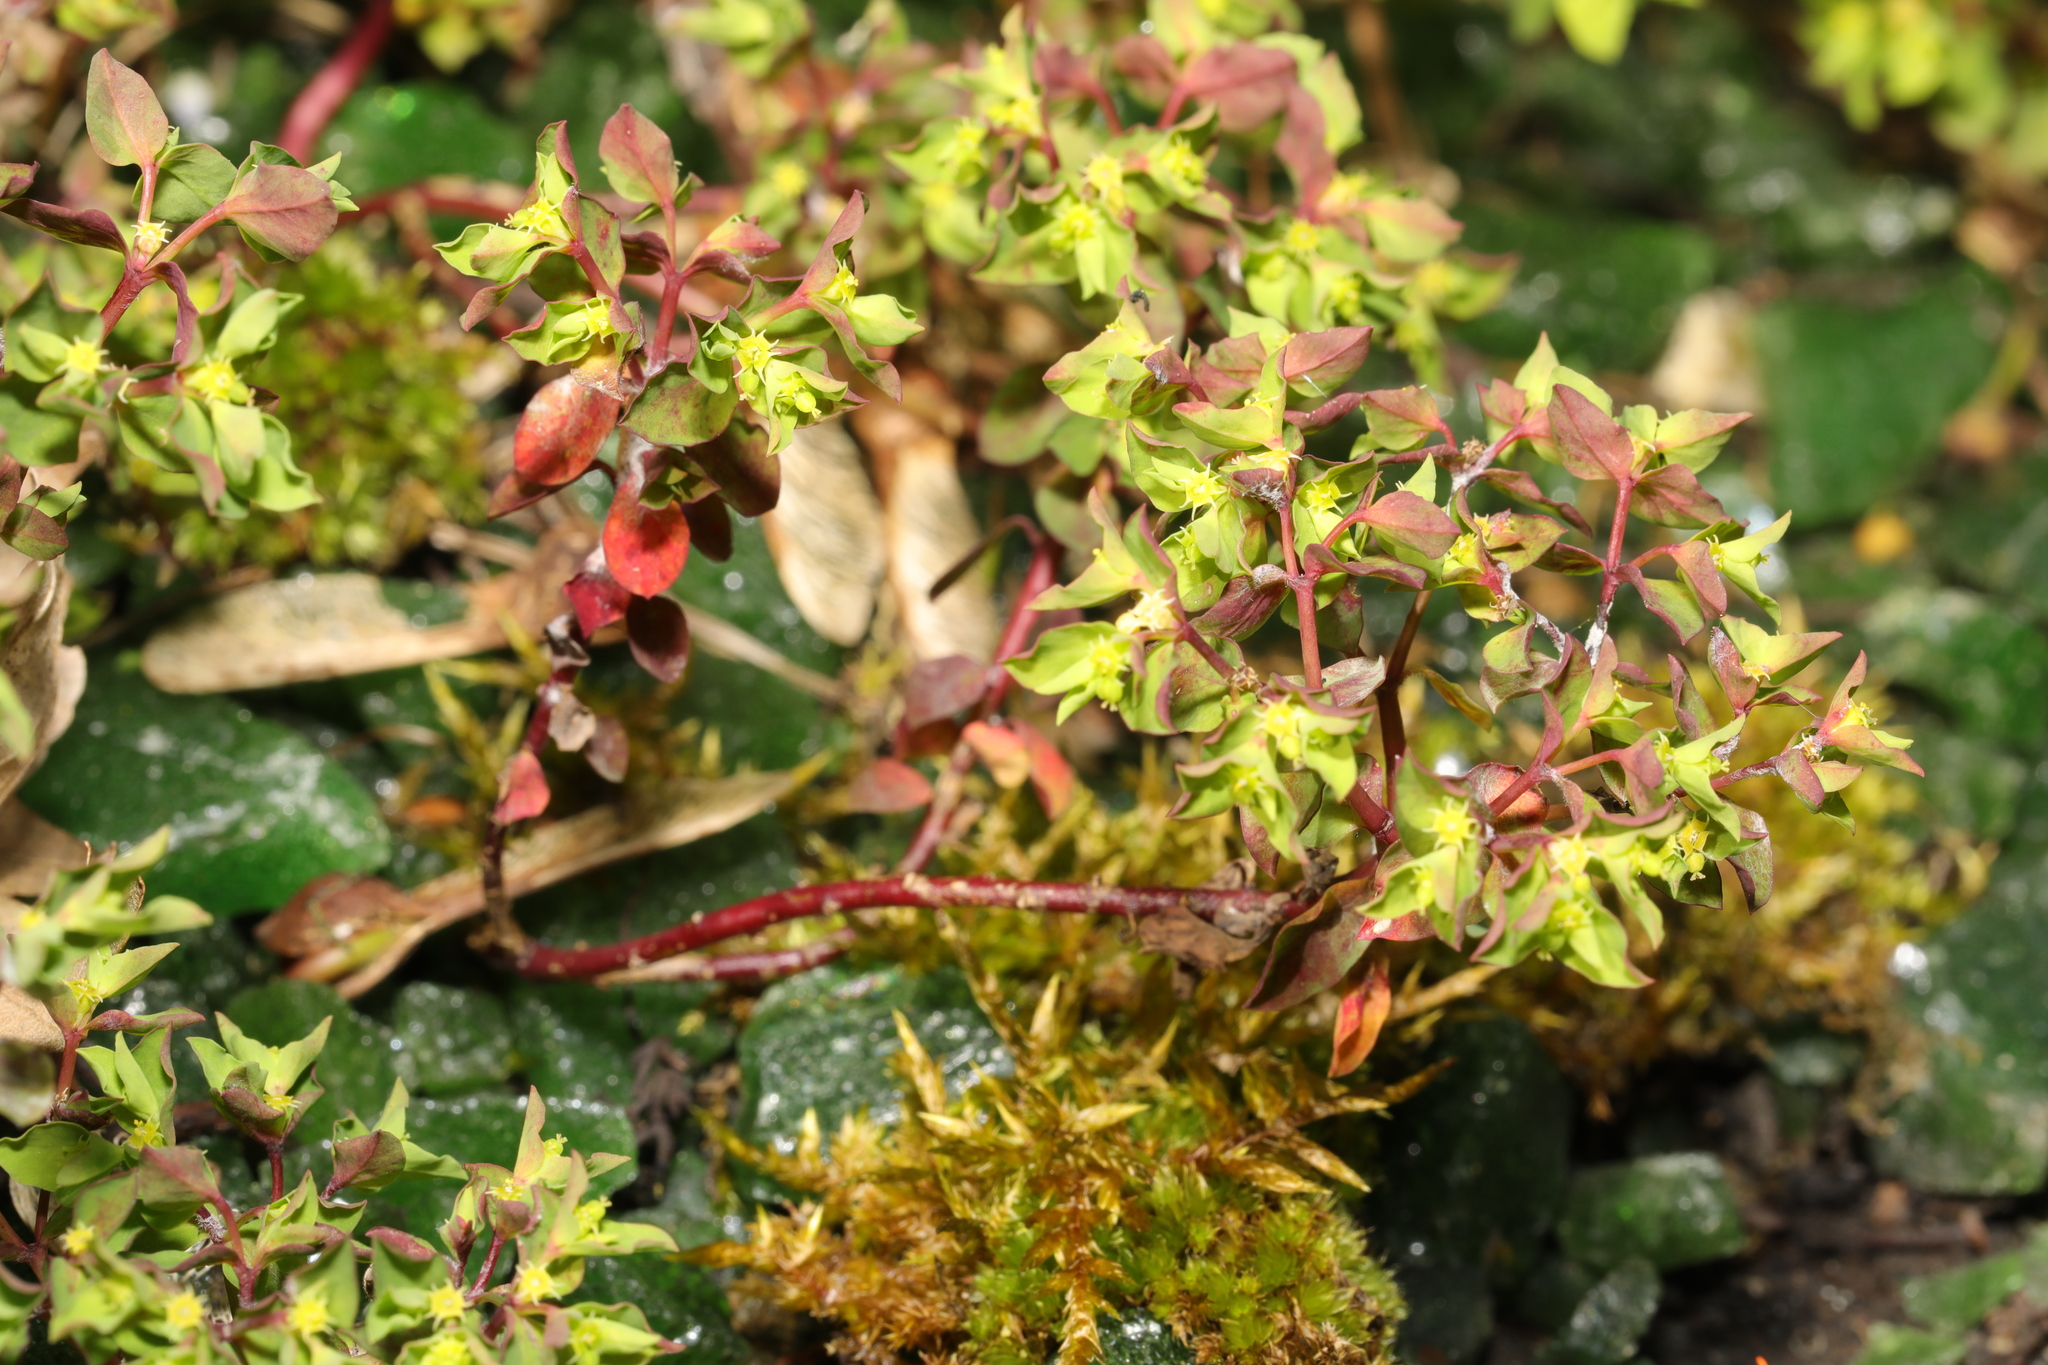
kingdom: Plantae
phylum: Tracheophyta
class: Magnoliopsida
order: Malpighiales
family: Euphorbiaceae
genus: Euphorbia
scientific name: Euphorbia peplus
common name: Petty spurge
